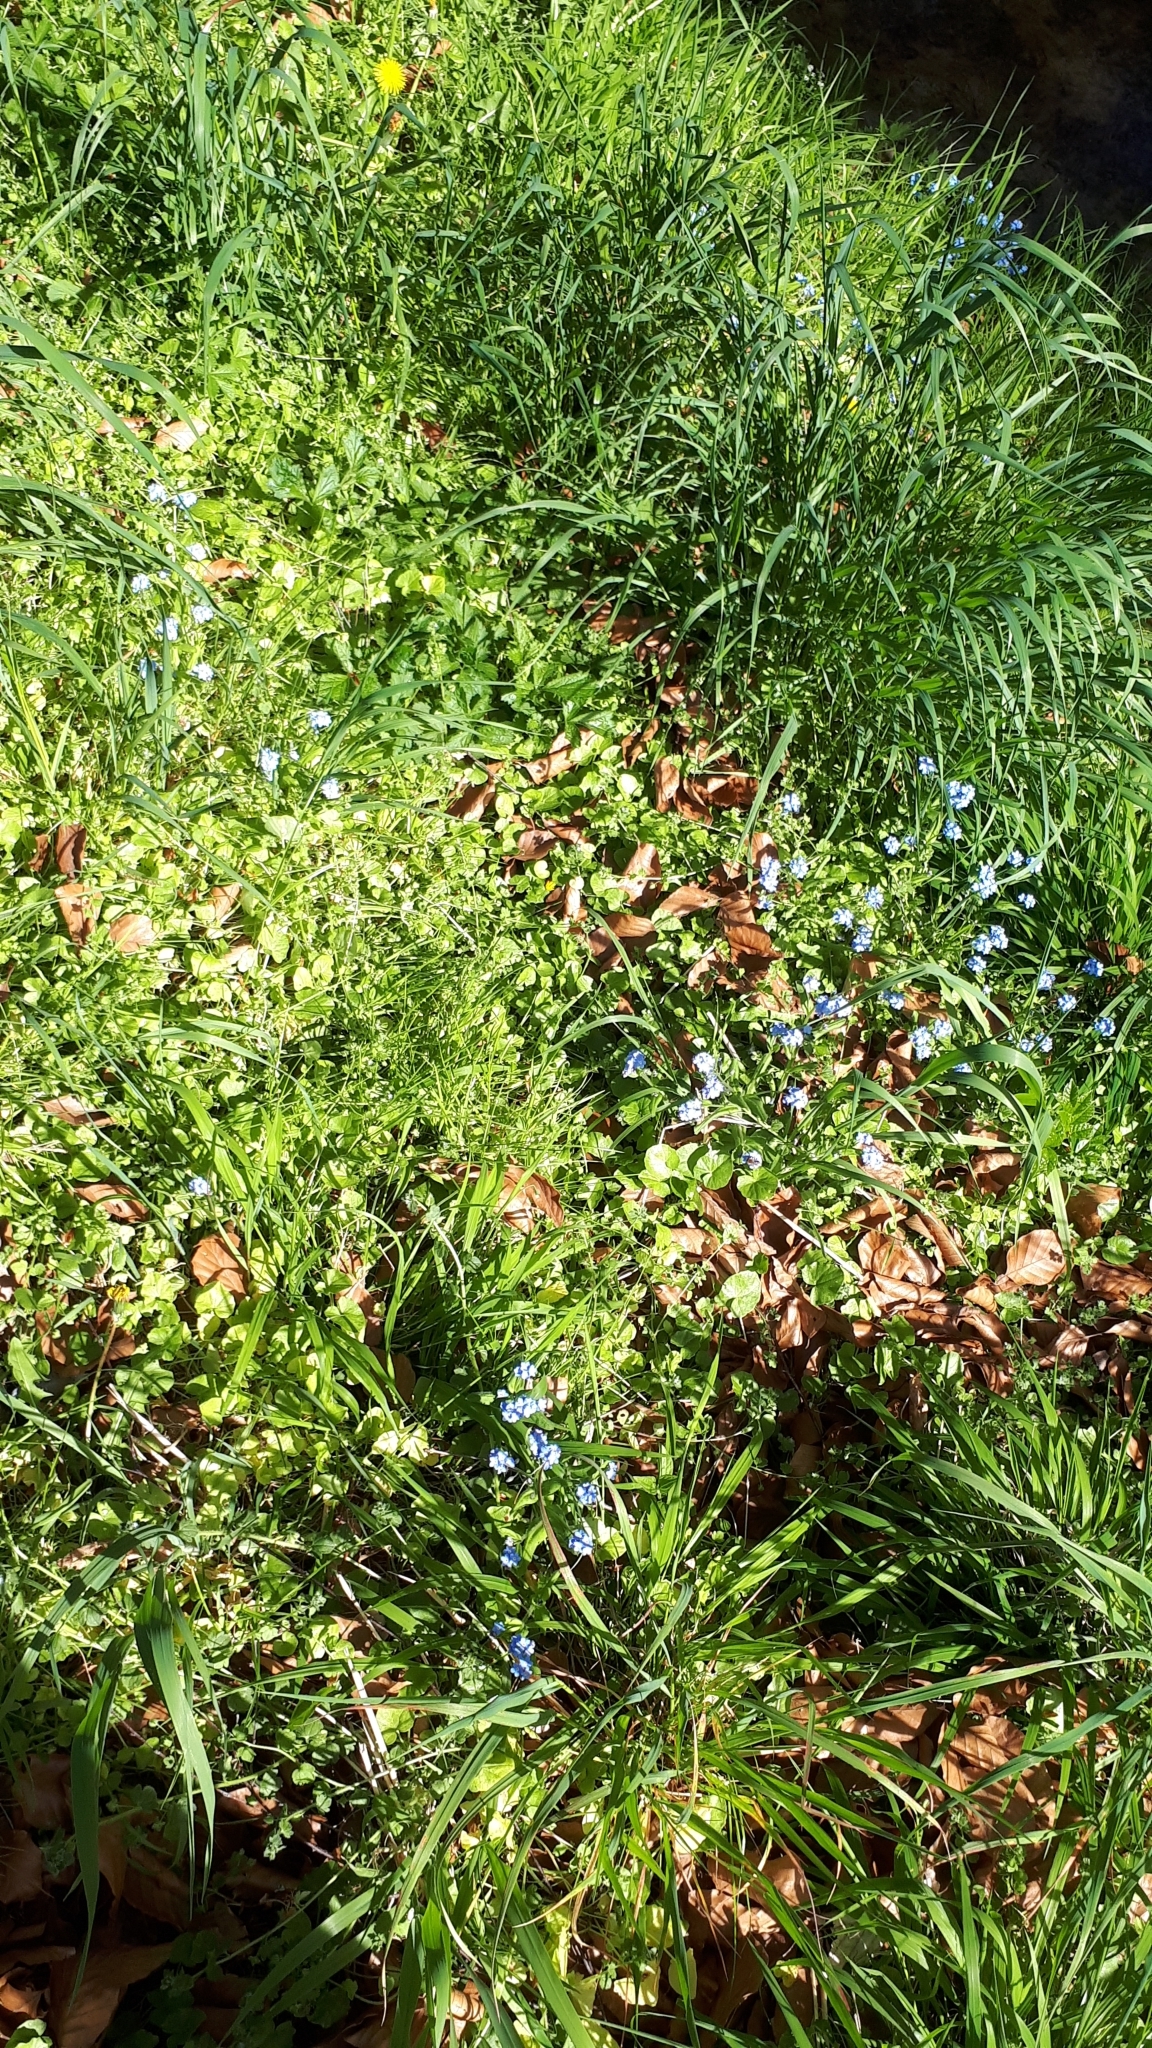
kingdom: Plantae
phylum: Tracheophyta
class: Magnoliopsida
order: Boraginales
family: Boraginaceae
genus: Myosotis
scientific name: Myosotis sylvatica
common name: Wood forget-me-not
